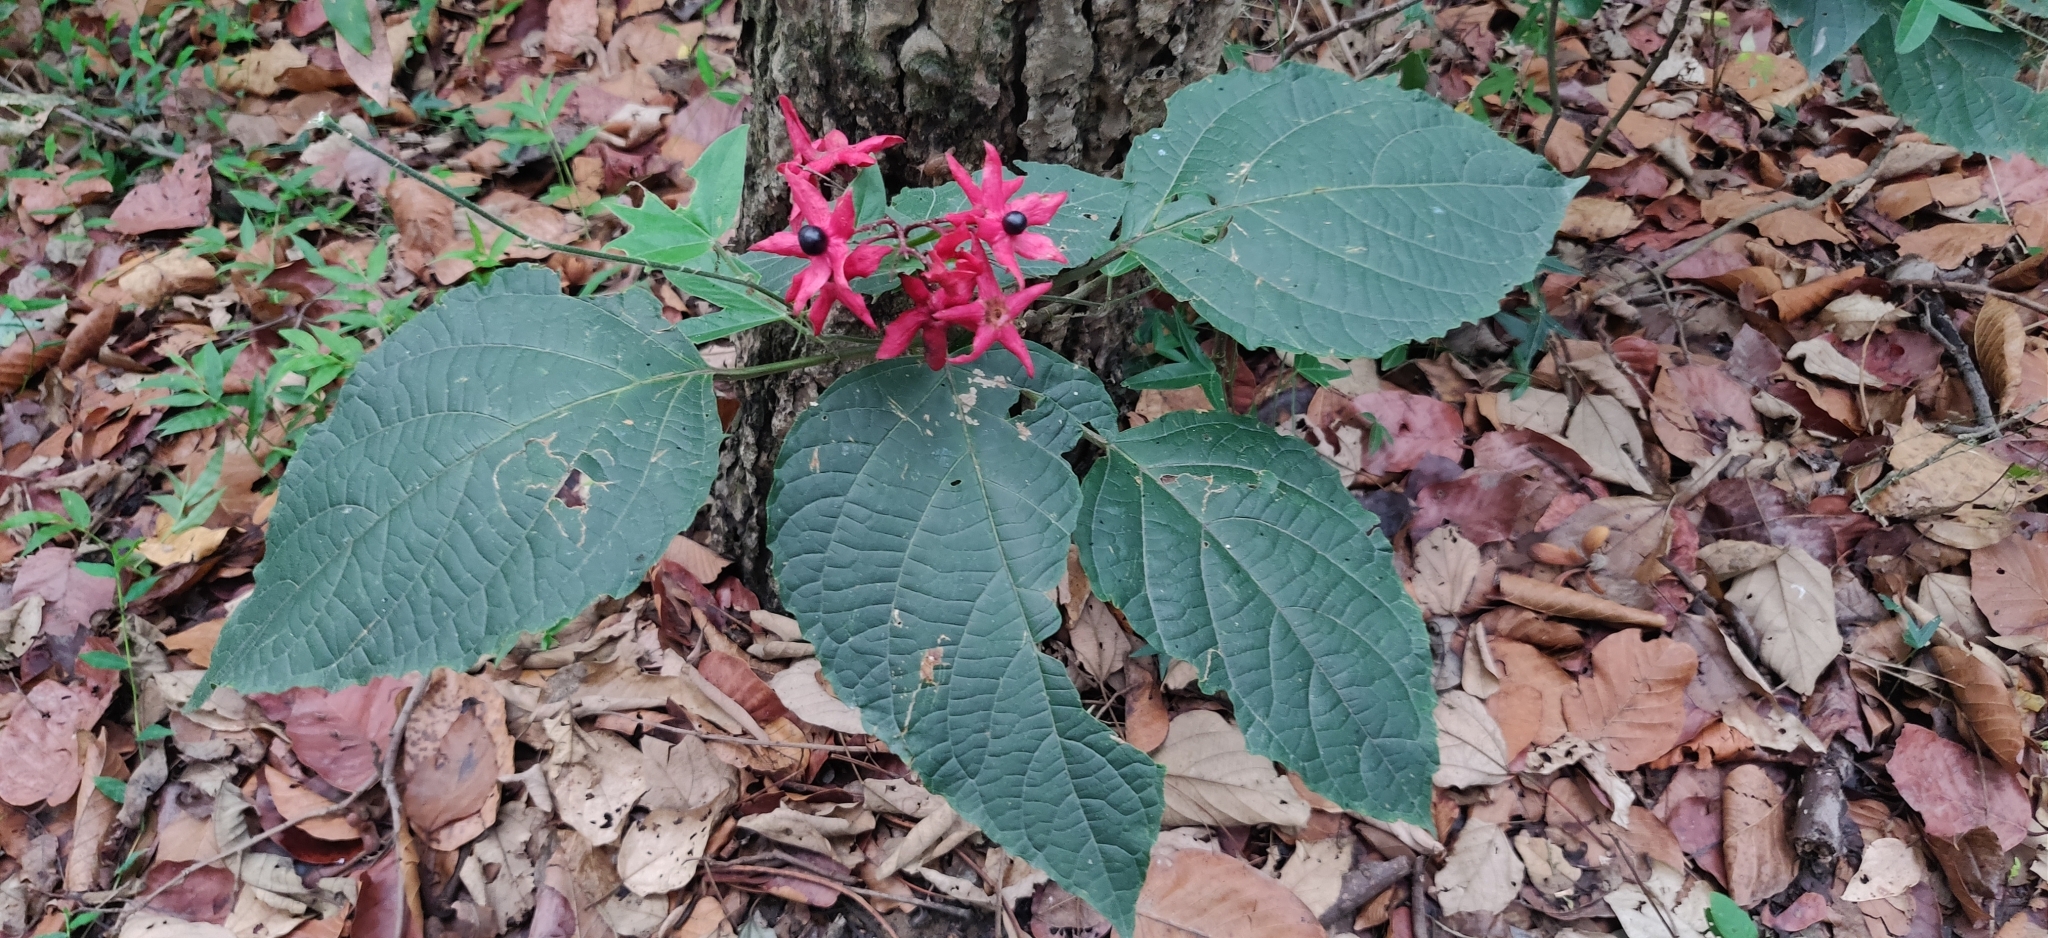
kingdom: Plantae
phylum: Tracheophyta
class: Magnoliopsida
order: Lamiales
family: Lamiaceae
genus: Clerodendrum
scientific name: Clerodendrum infortunatum
